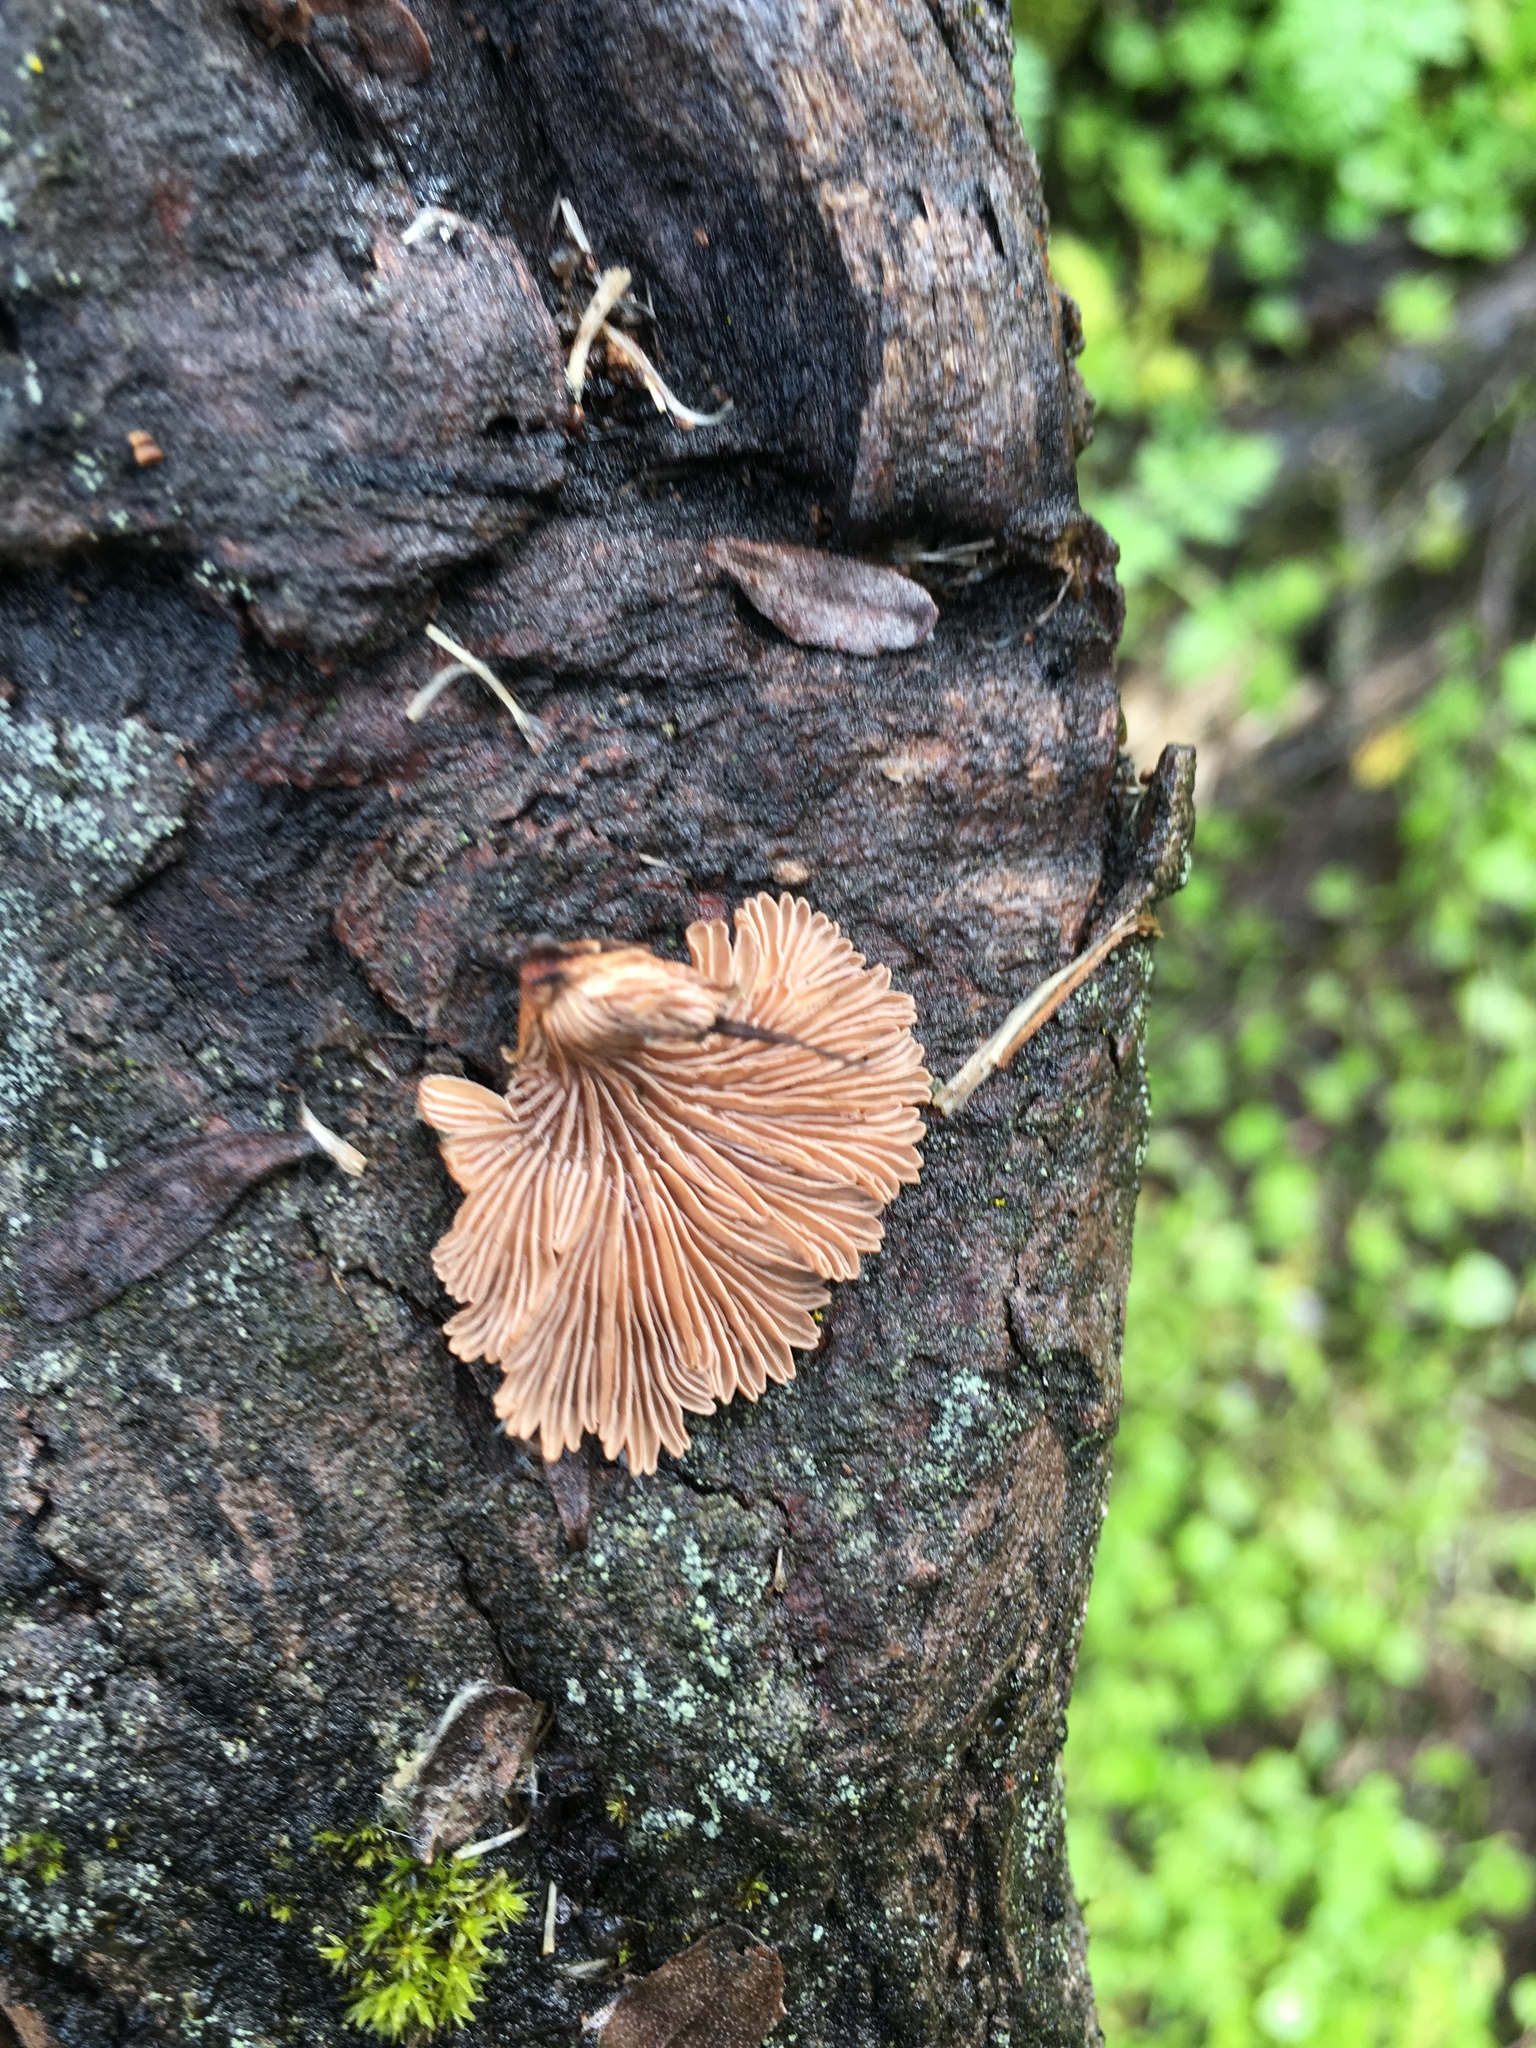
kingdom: Fungi
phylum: Basidiomycota
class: Agaricomycetes
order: Agaricales
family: Schizophyllaceae
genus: Schizophyllum
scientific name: Schizophyllum commune
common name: Common porecrust
